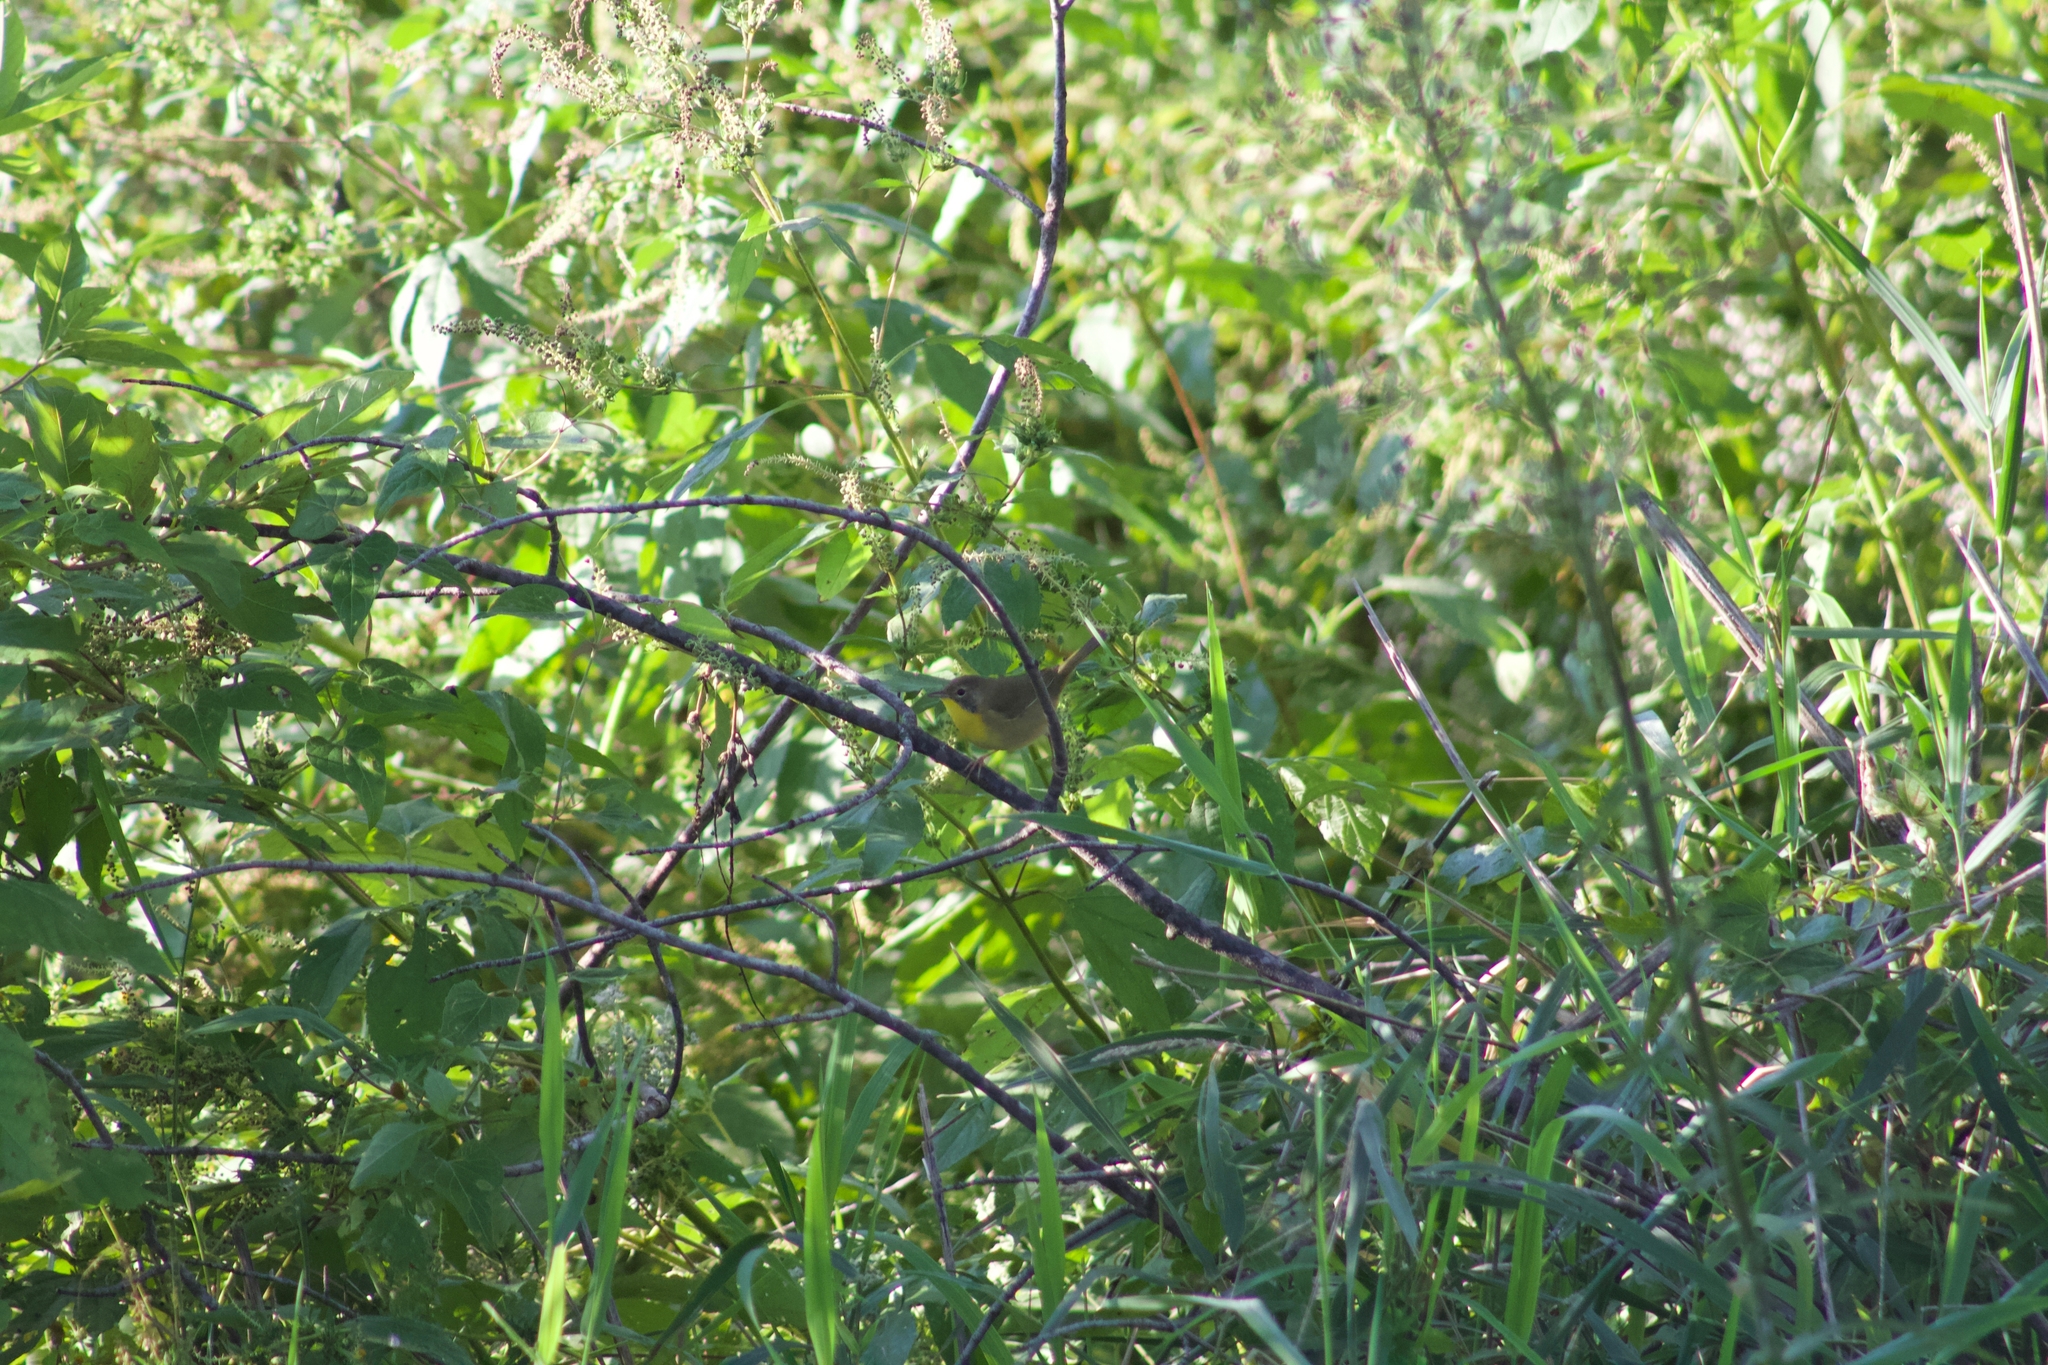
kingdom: Animalia
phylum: Chordata
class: Aves
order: Passeriformes
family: Parulidae
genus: Geothlypis
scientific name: Geothlypis trichas
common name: Common yellowthroat
